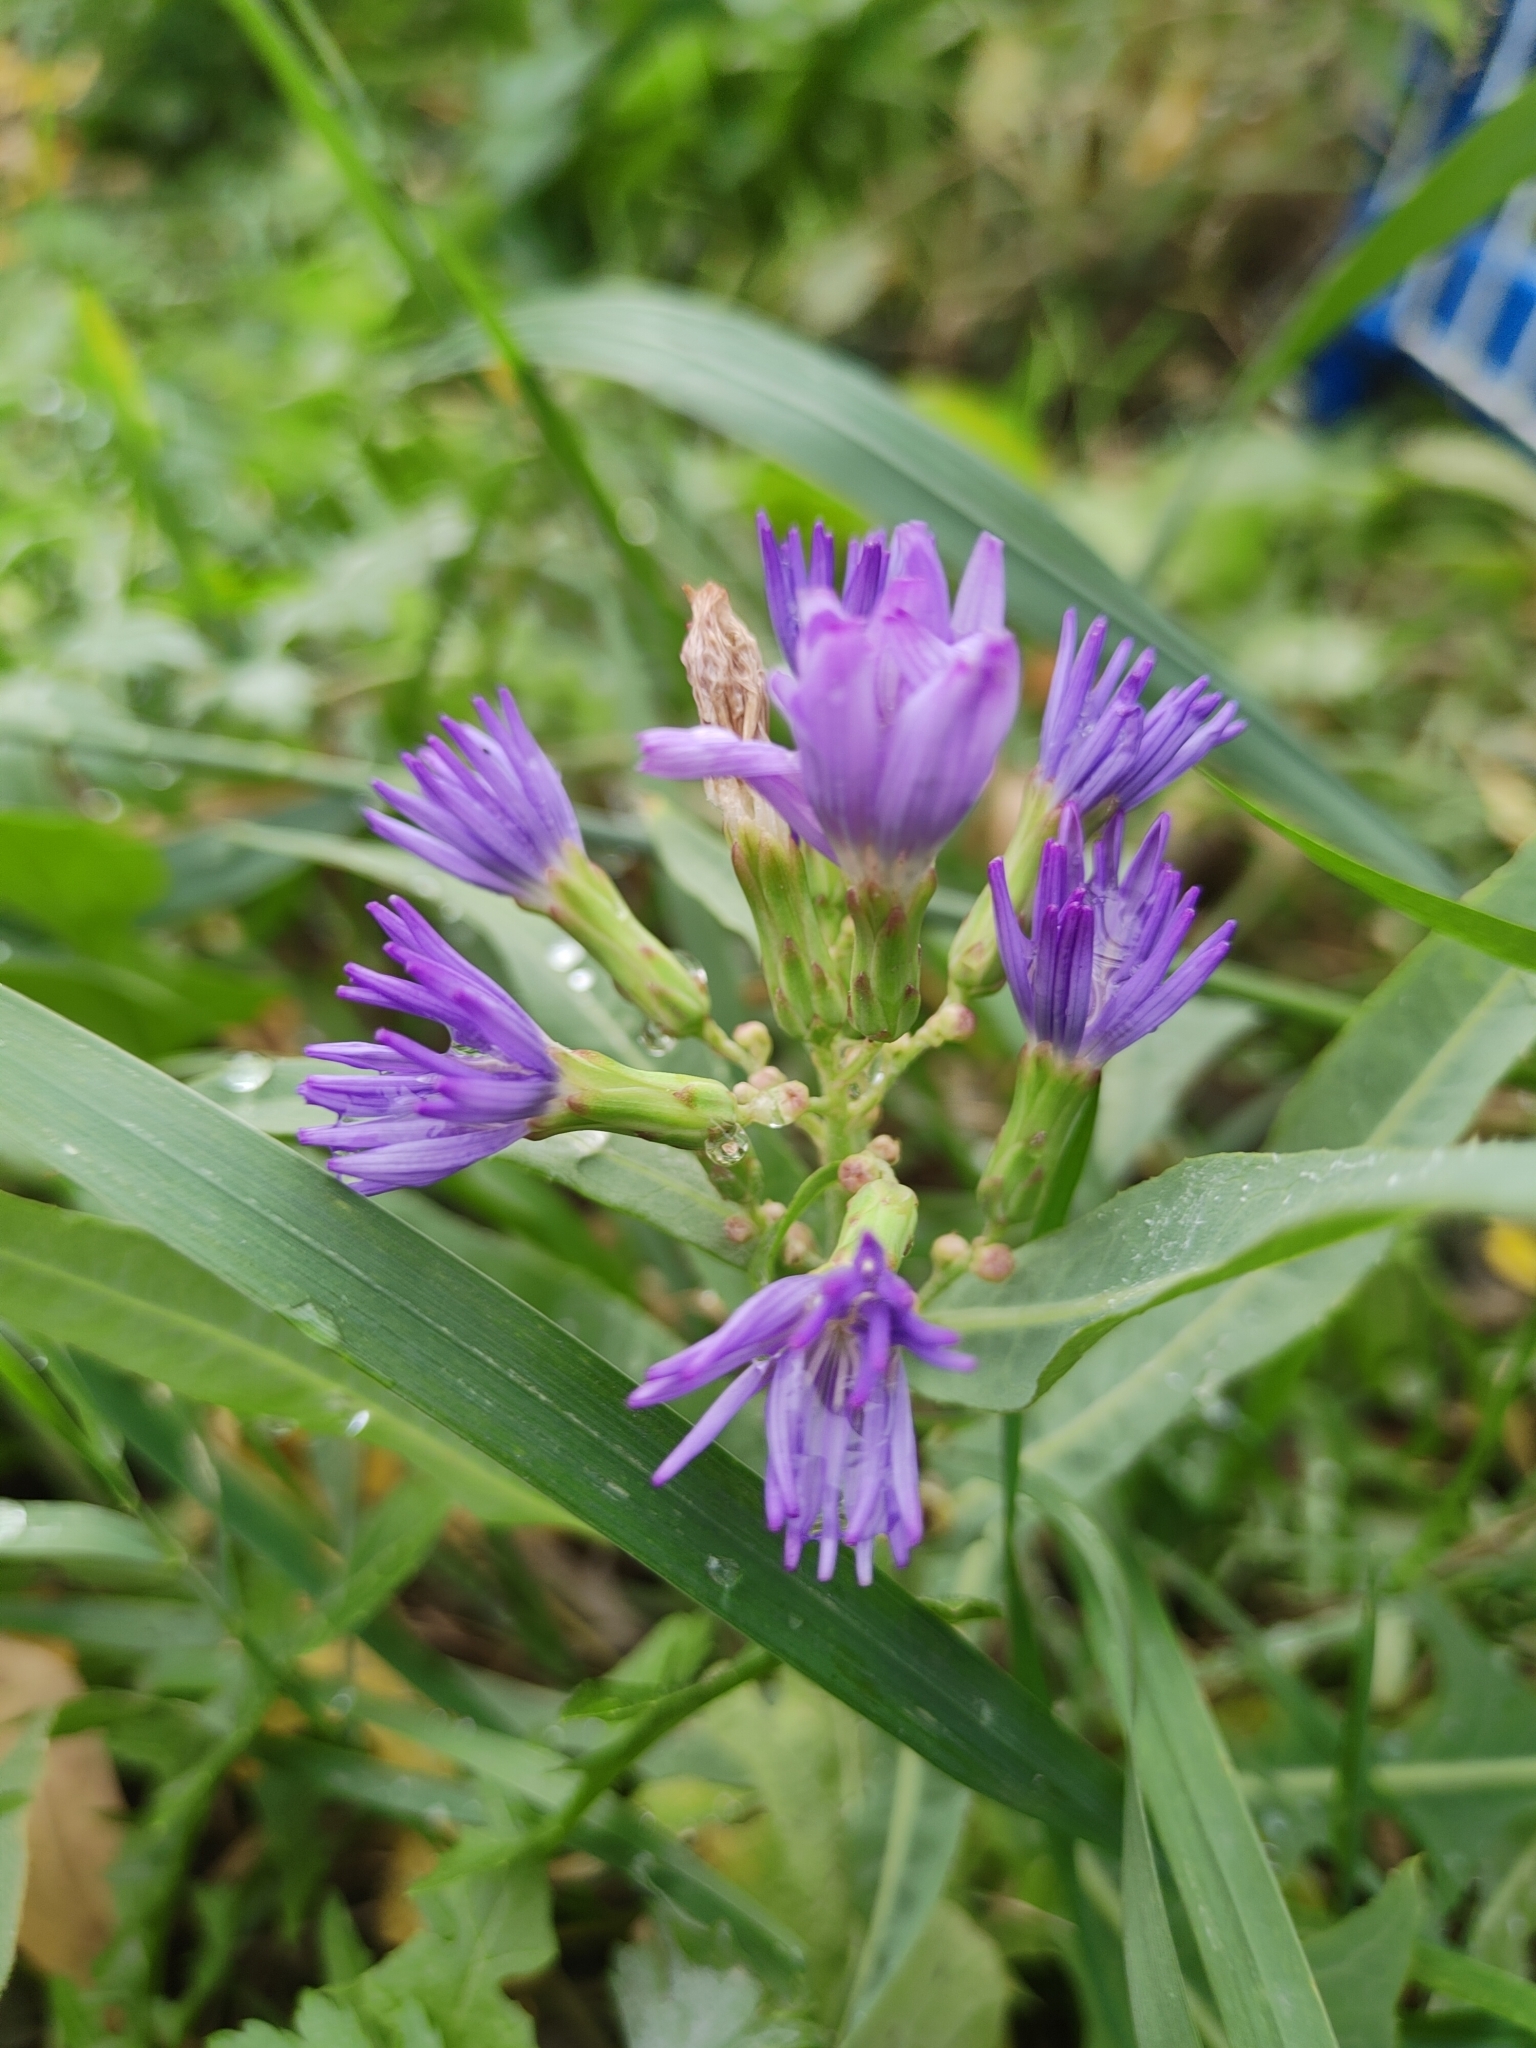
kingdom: Plantae
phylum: Tracheophyta
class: Magnoliopsida
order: Asterales
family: Asteraceae
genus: Lactuca
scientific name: Lactuca tatarica
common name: Blue lettuce
